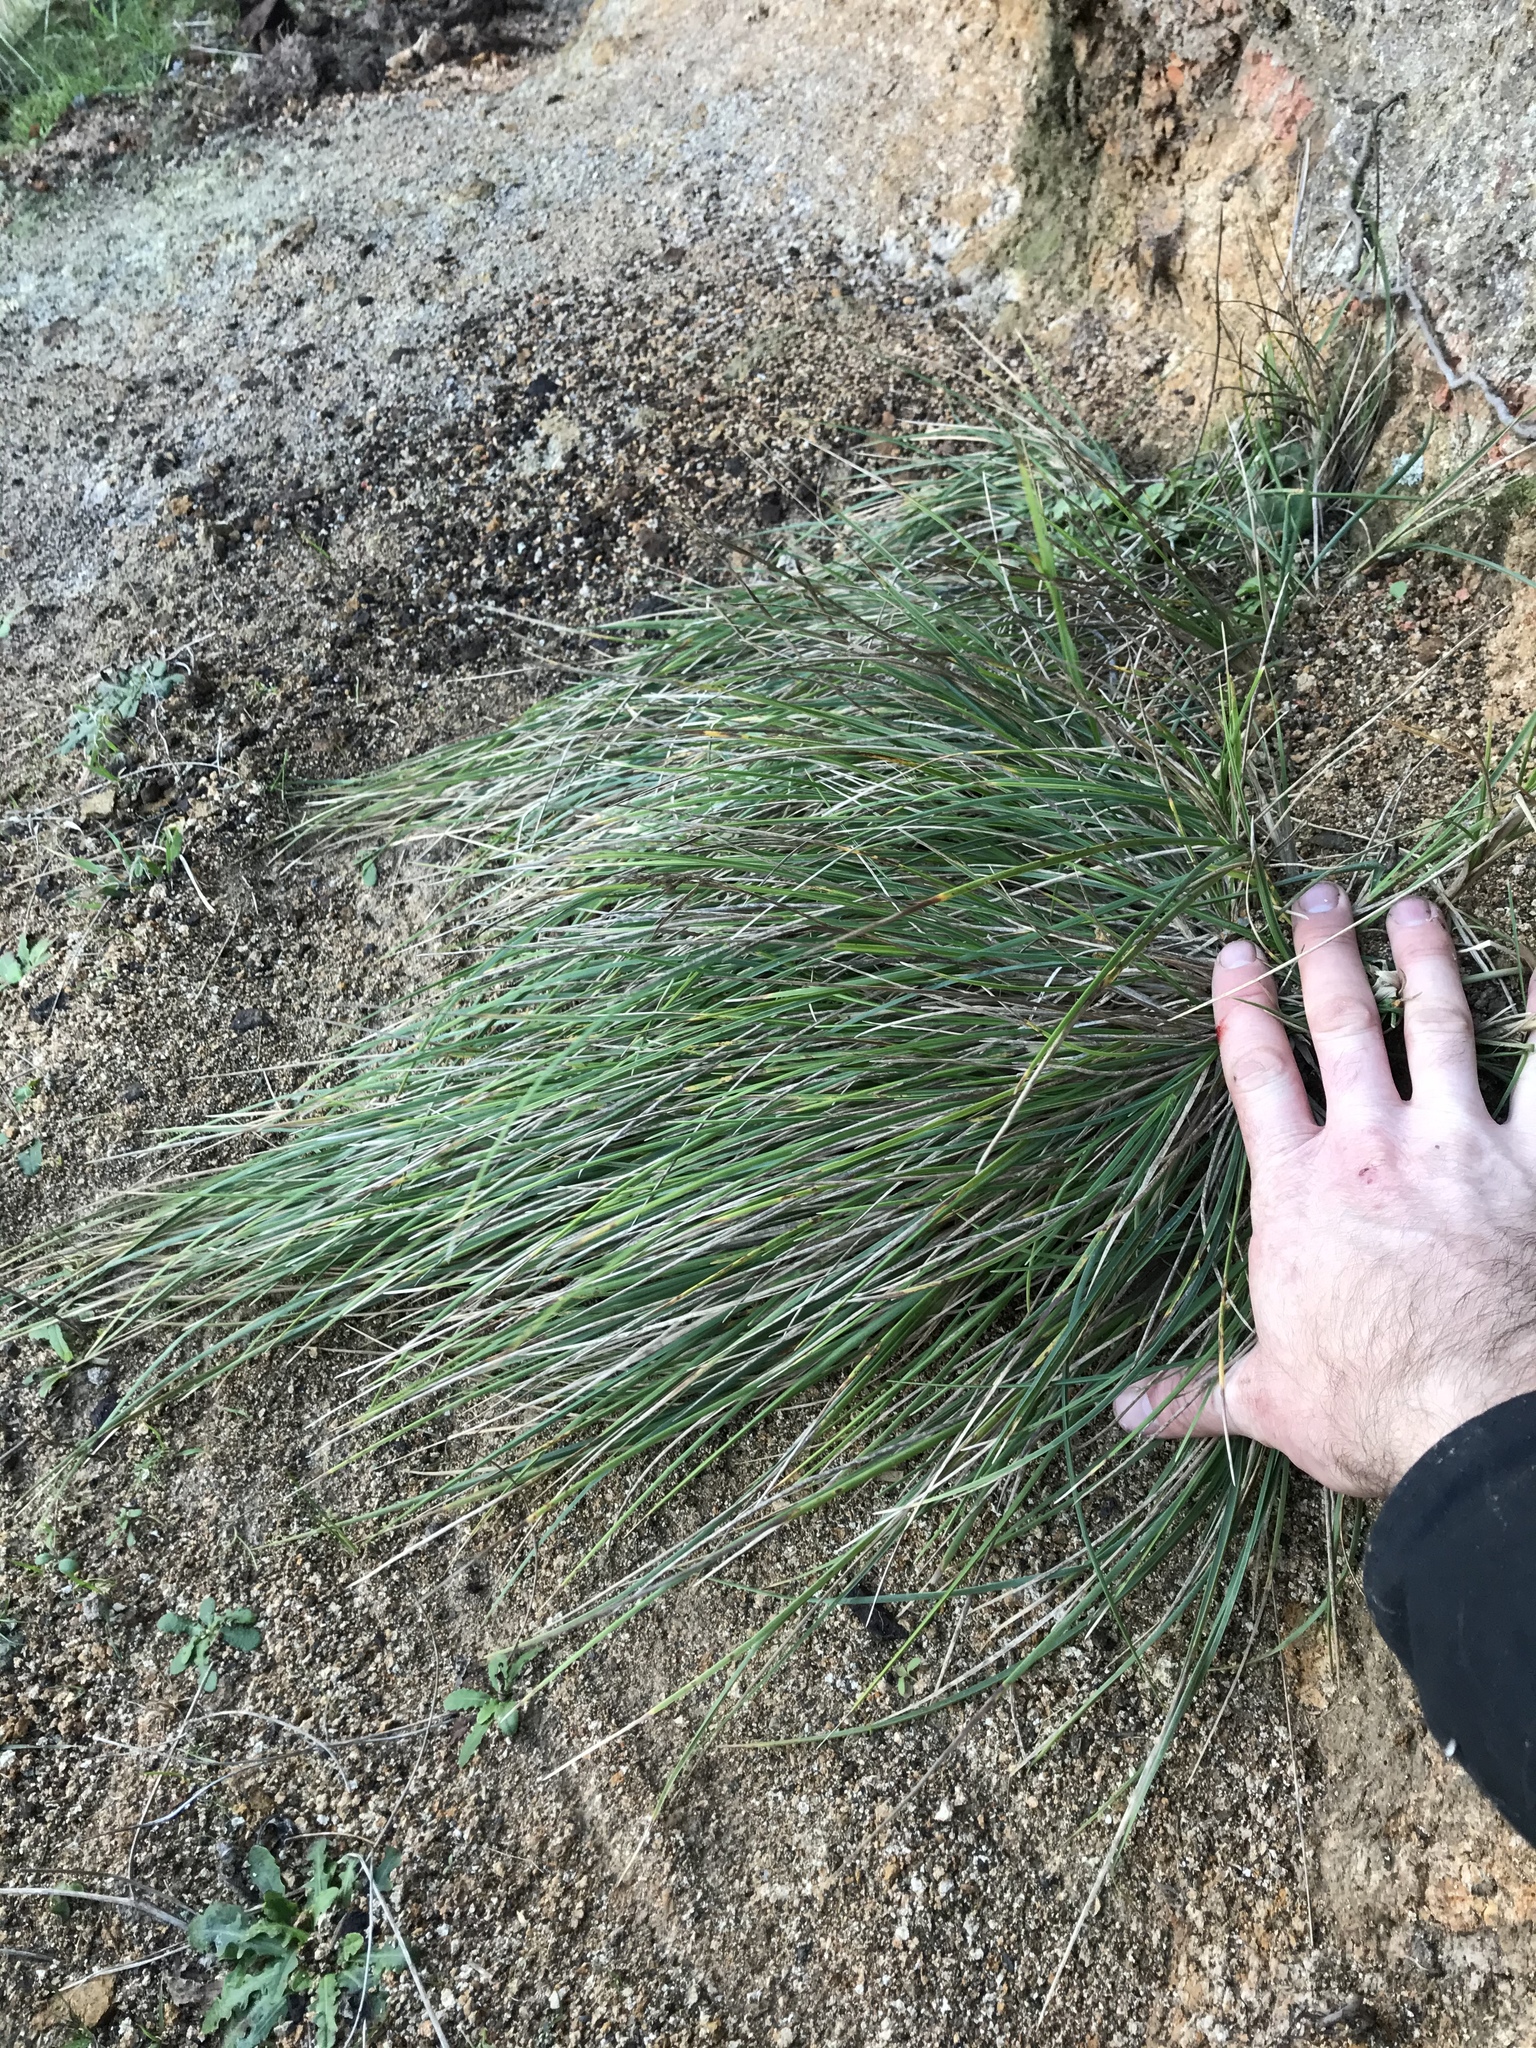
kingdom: Plantae
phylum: Tracheophyta
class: Liliopsida
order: Poales
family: Poaceae
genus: Poa
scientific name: Poa anceps
